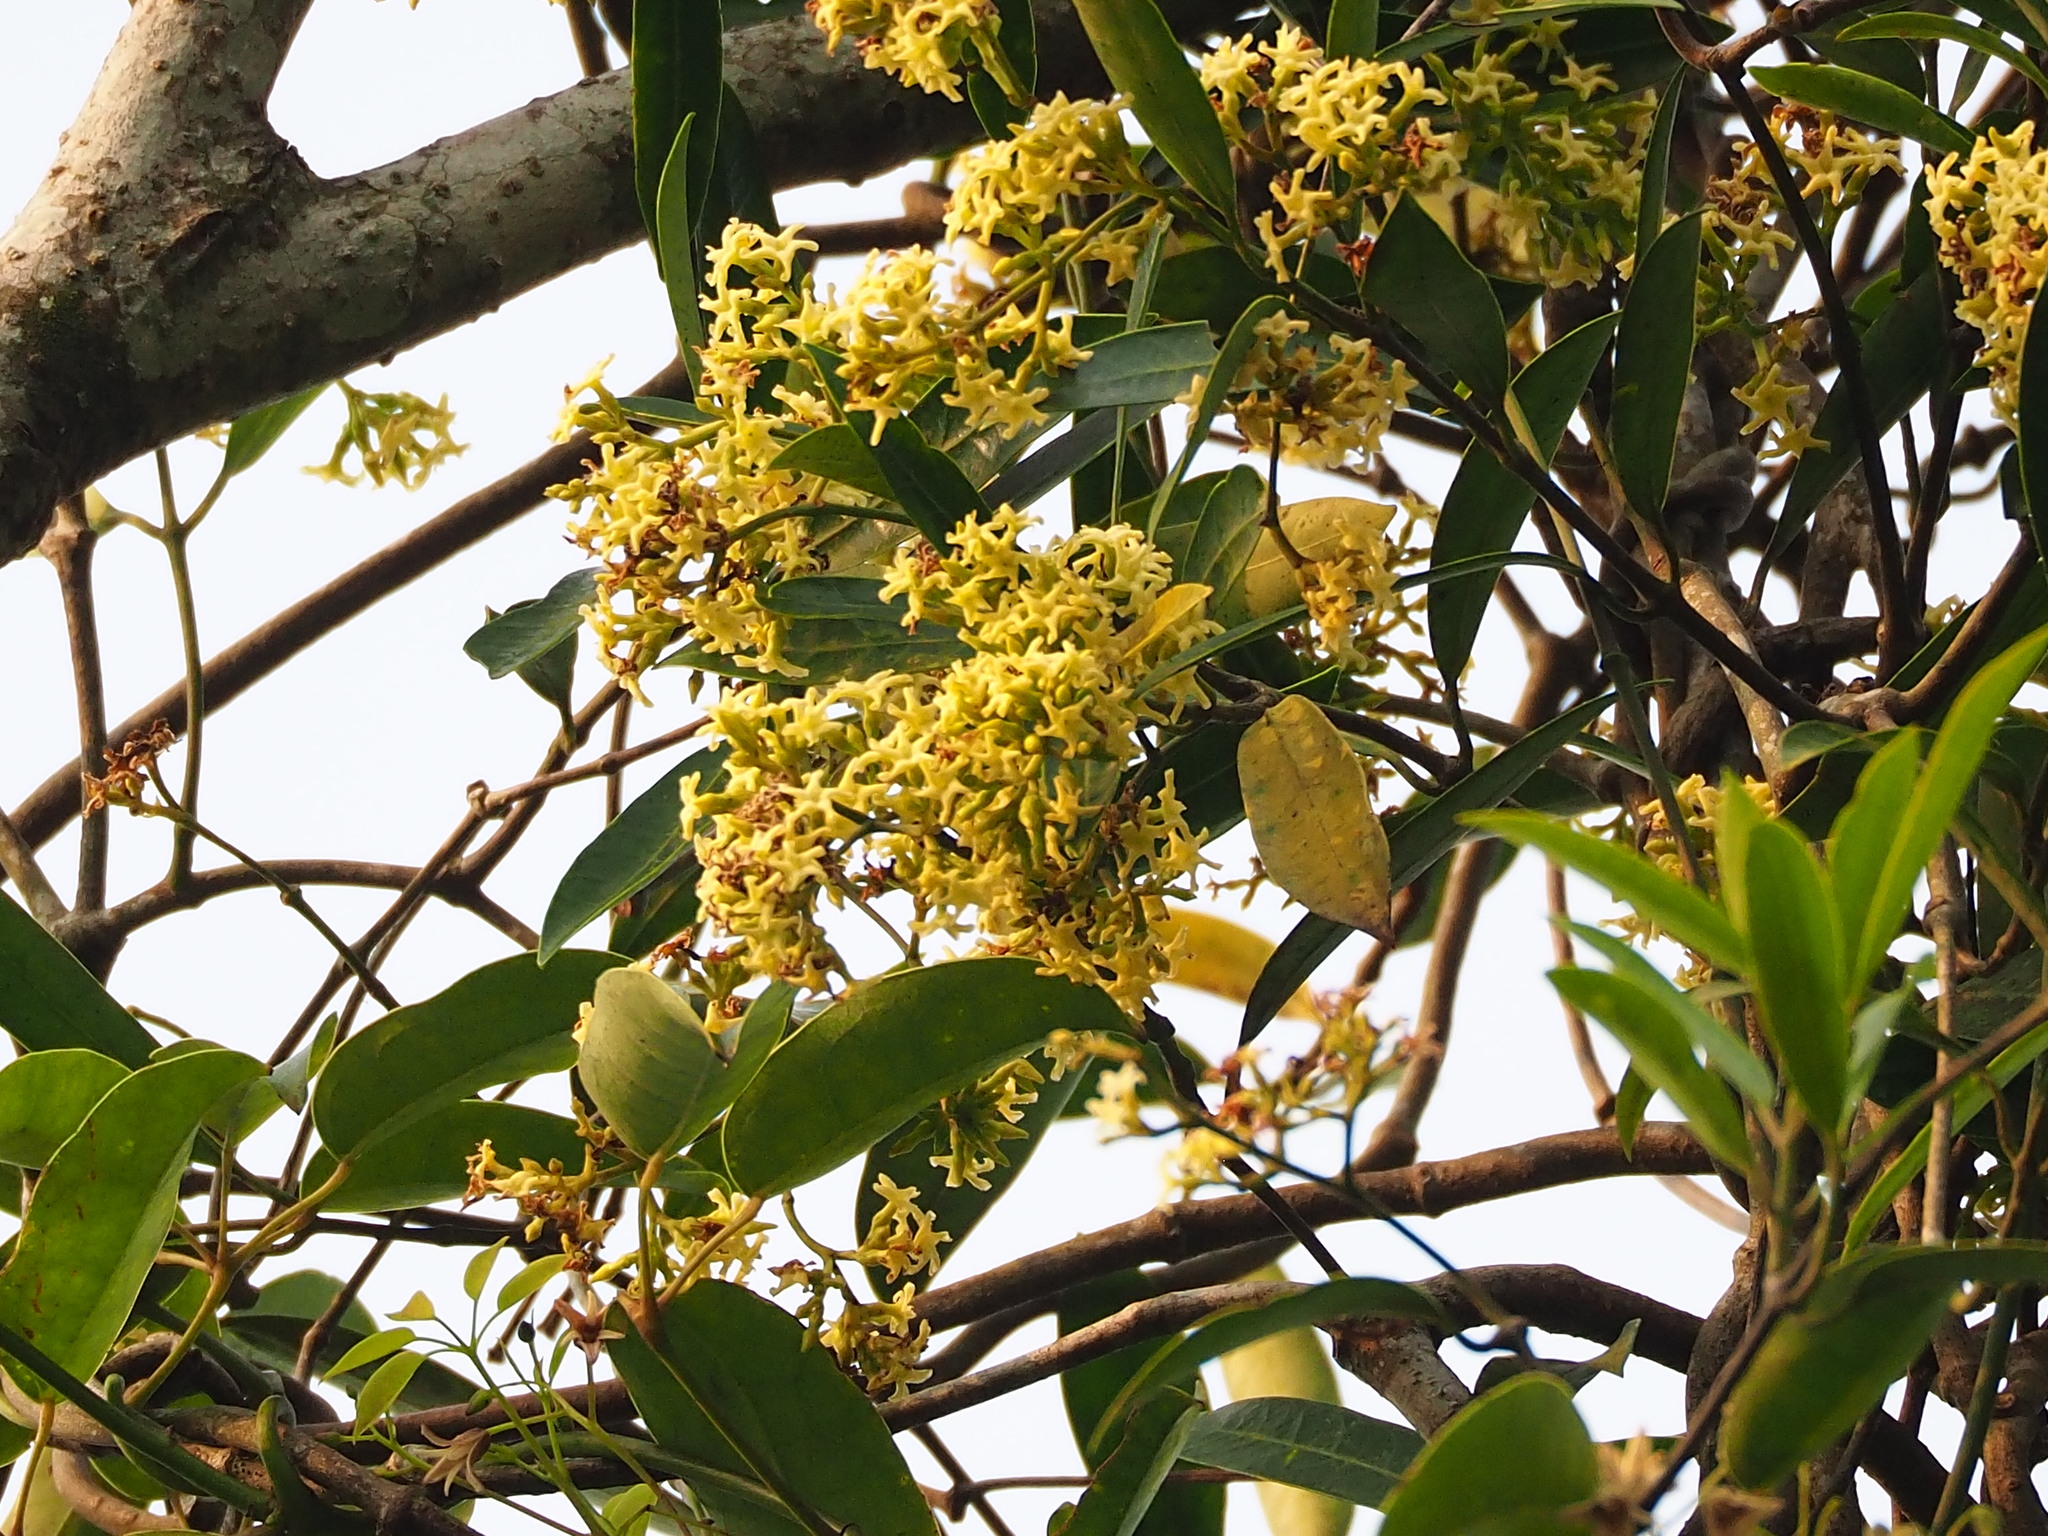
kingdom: Plantae
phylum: Tracheophyta
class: Magnoliopsida
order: Gentianales
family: Apocynaceae
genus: Anodendron
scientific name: Anodendron affine
